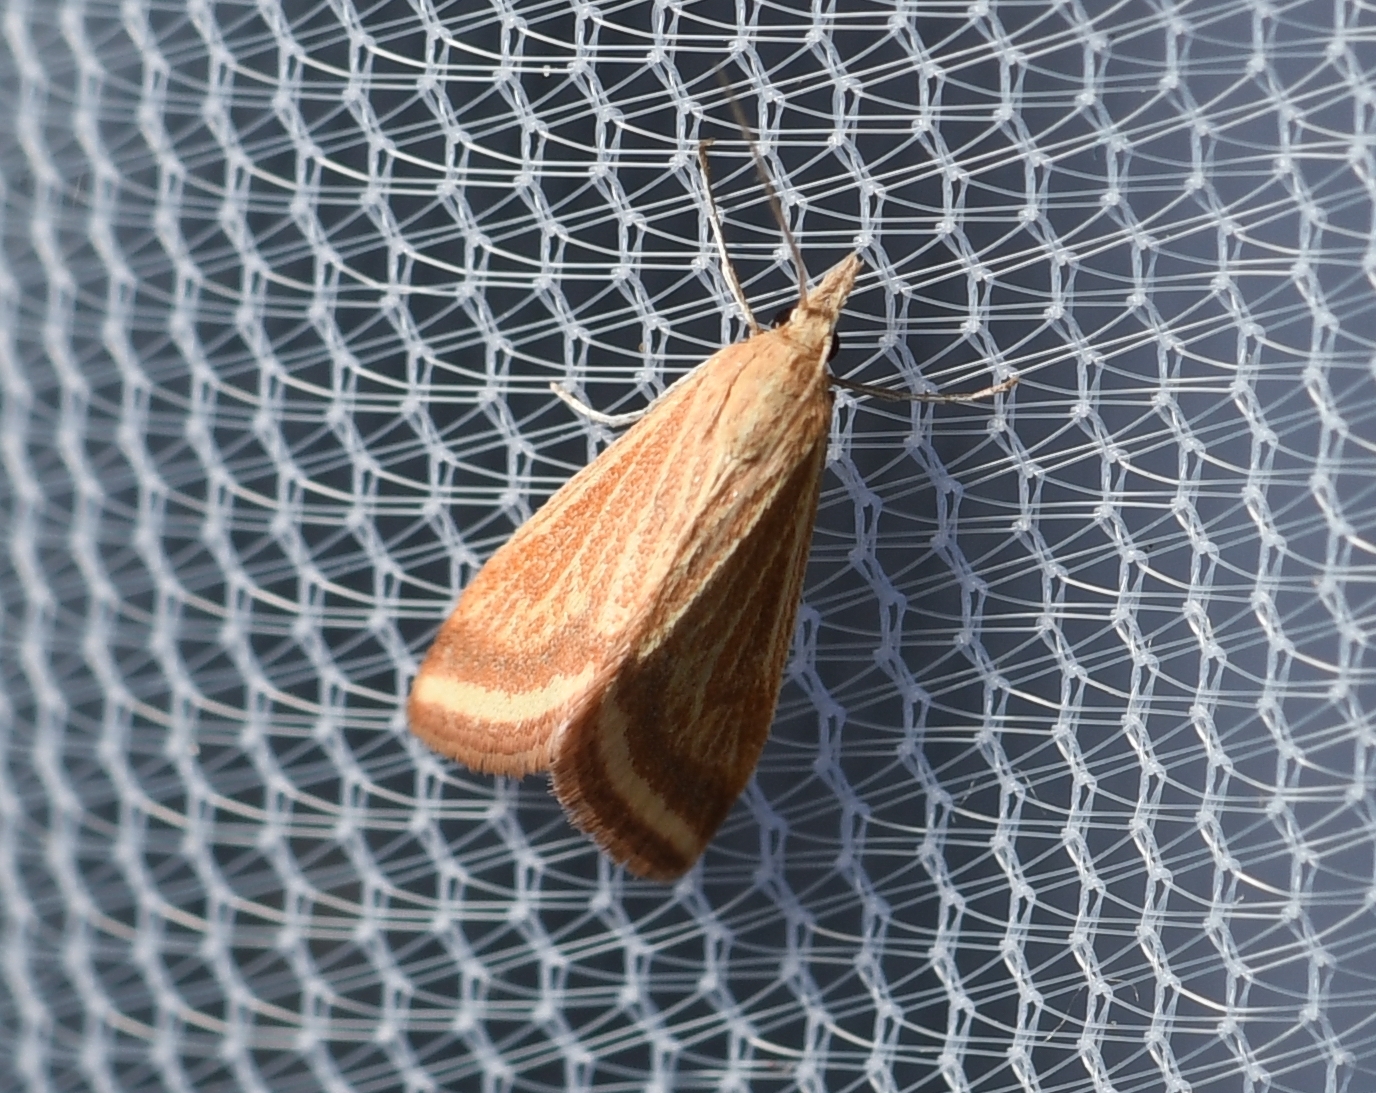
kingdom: Animalia
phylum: Arthropoda
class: Insecta
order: Lepidoptera
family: Crambidae
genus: Microtheoris
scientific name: Microtheoris ophionalis
